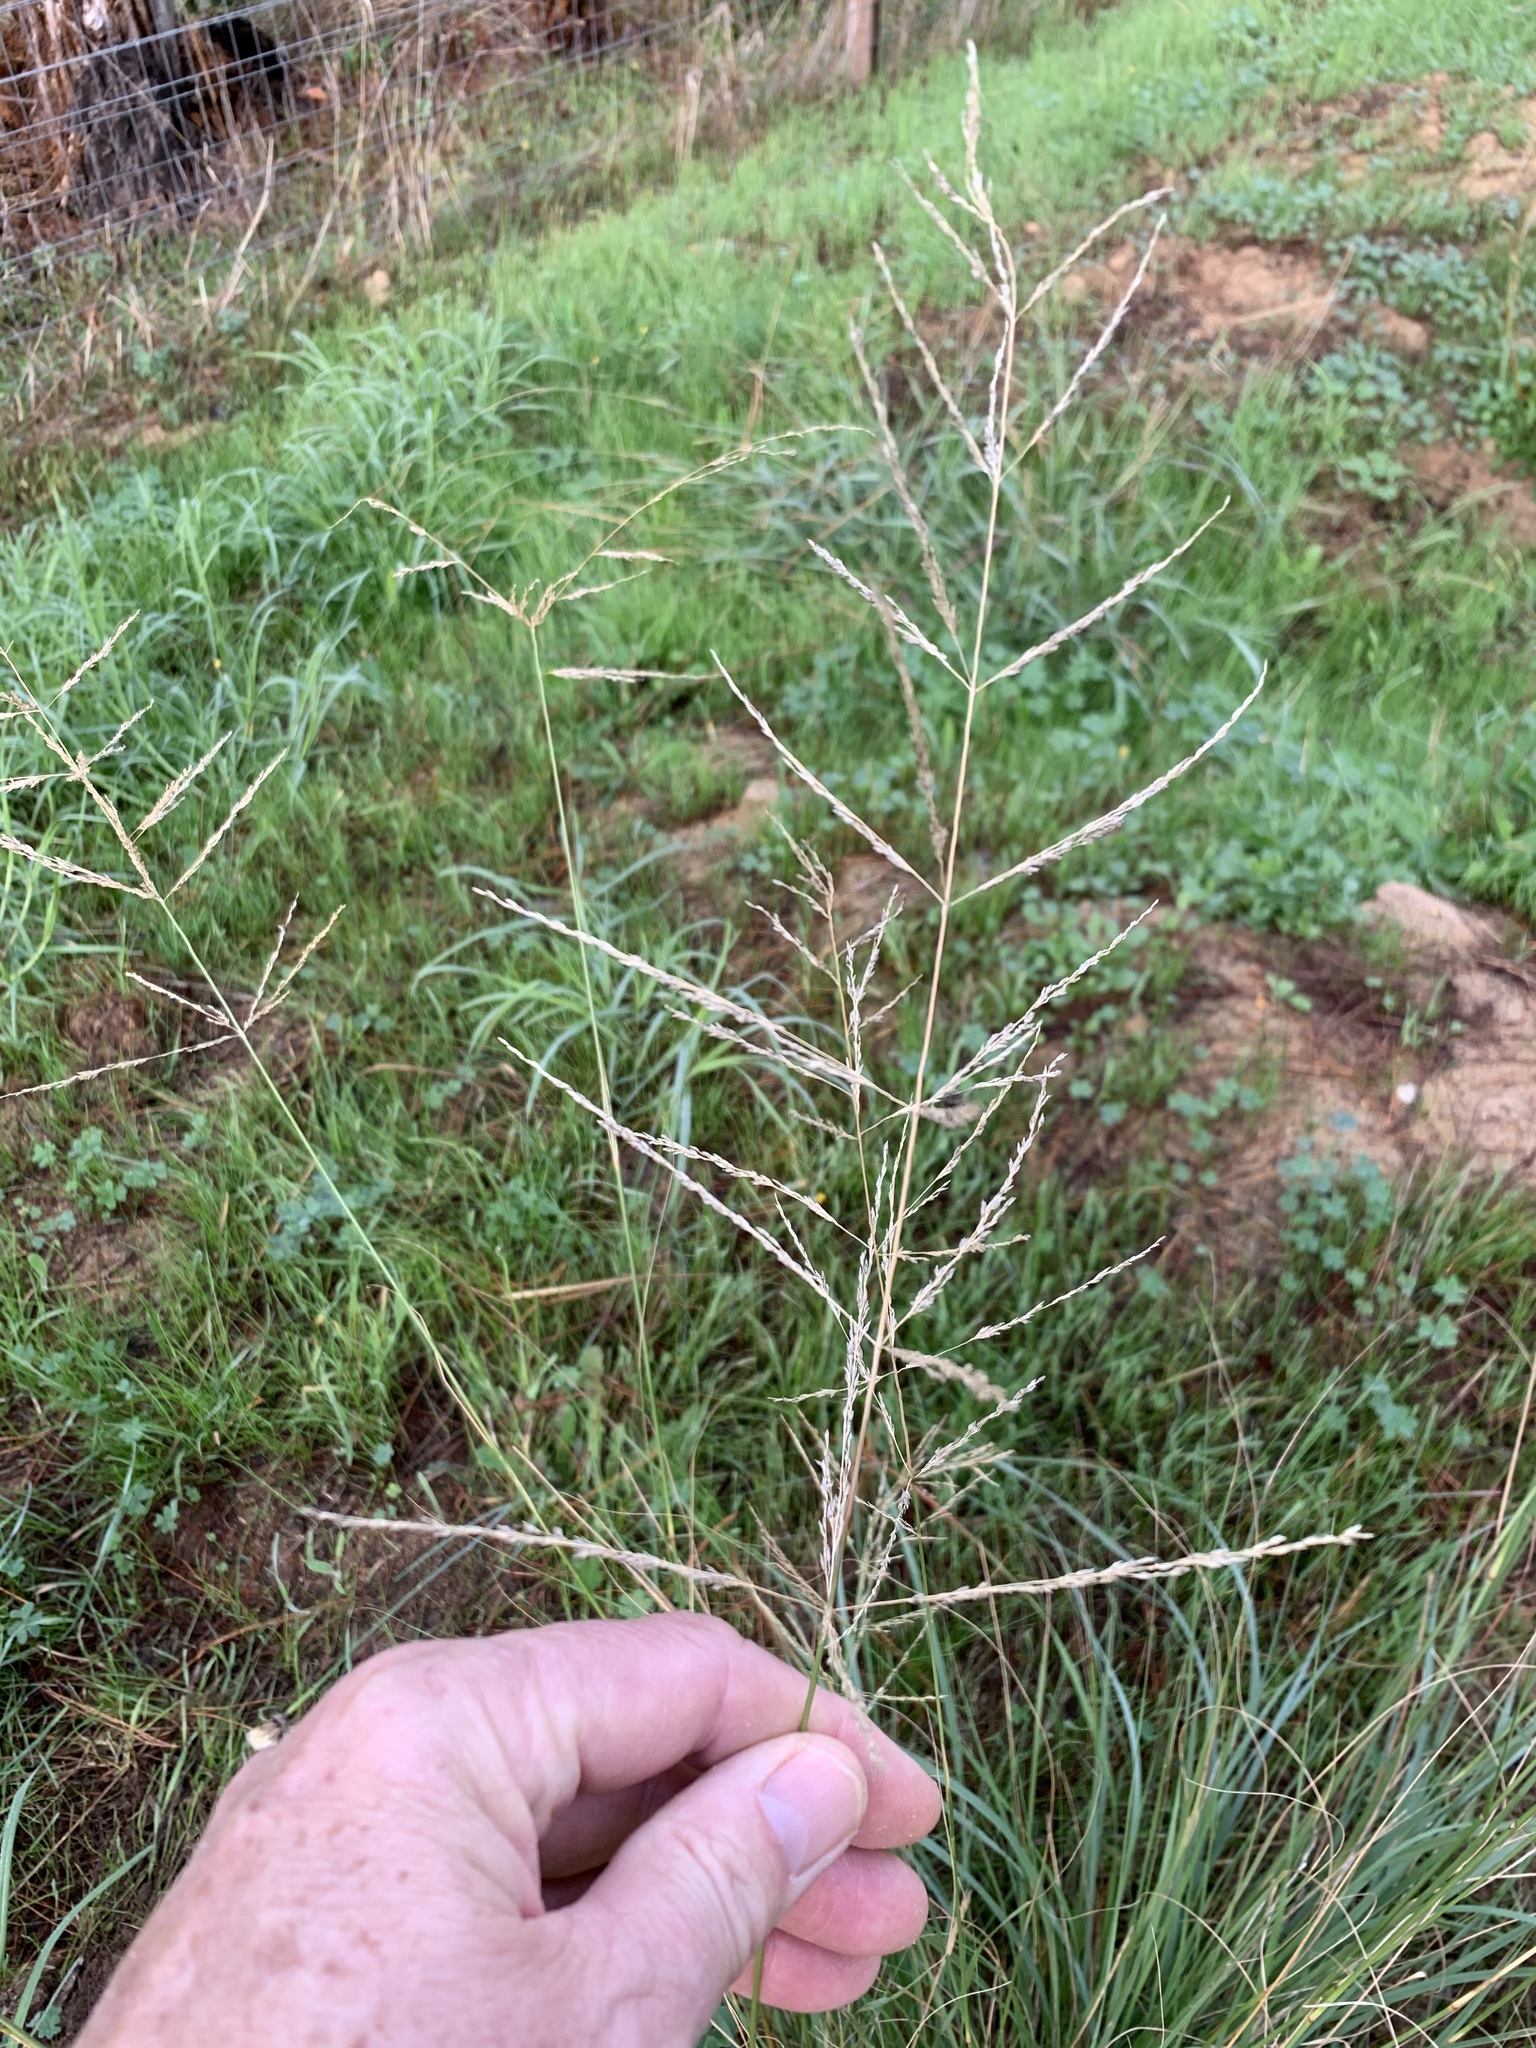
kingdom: Plantae
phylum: Tracheophyta
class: Liliopsida
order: Poales
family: Poaceae
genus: Eragrostis
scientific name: Eragrostis curvula
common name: African love-grass
